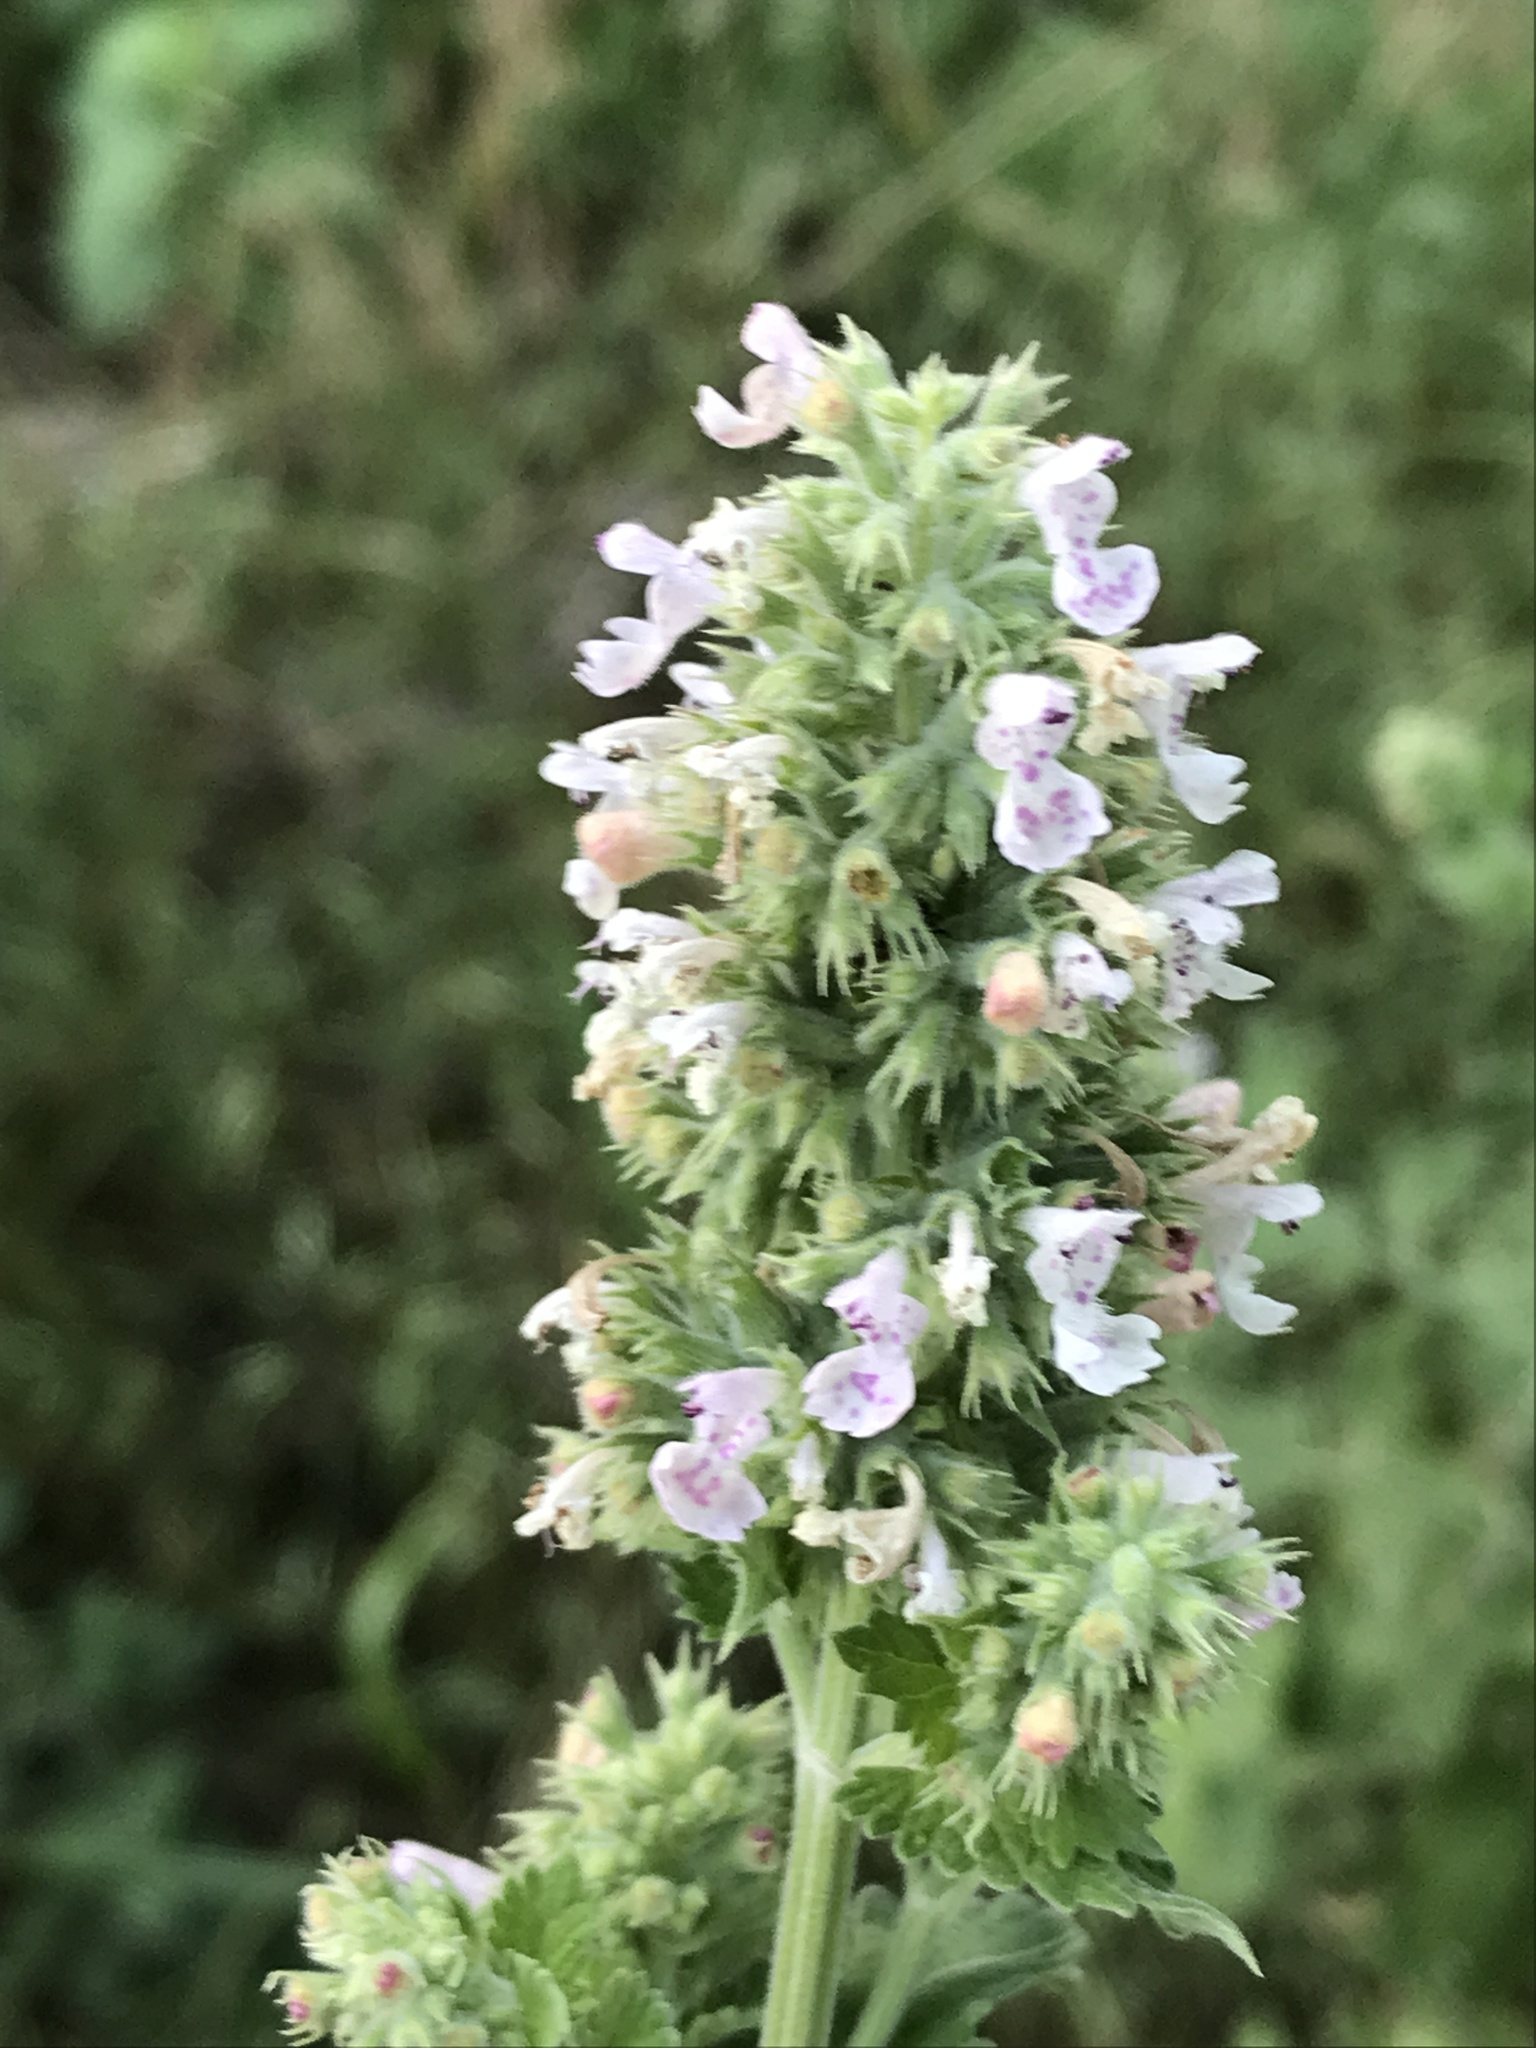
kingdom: Plantae
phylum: Tracheophyta
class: Magnoliopsida
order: Lamiales
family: Lamiaceae
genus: Nepeta
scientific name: Nepeta cataria
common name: Catnip
